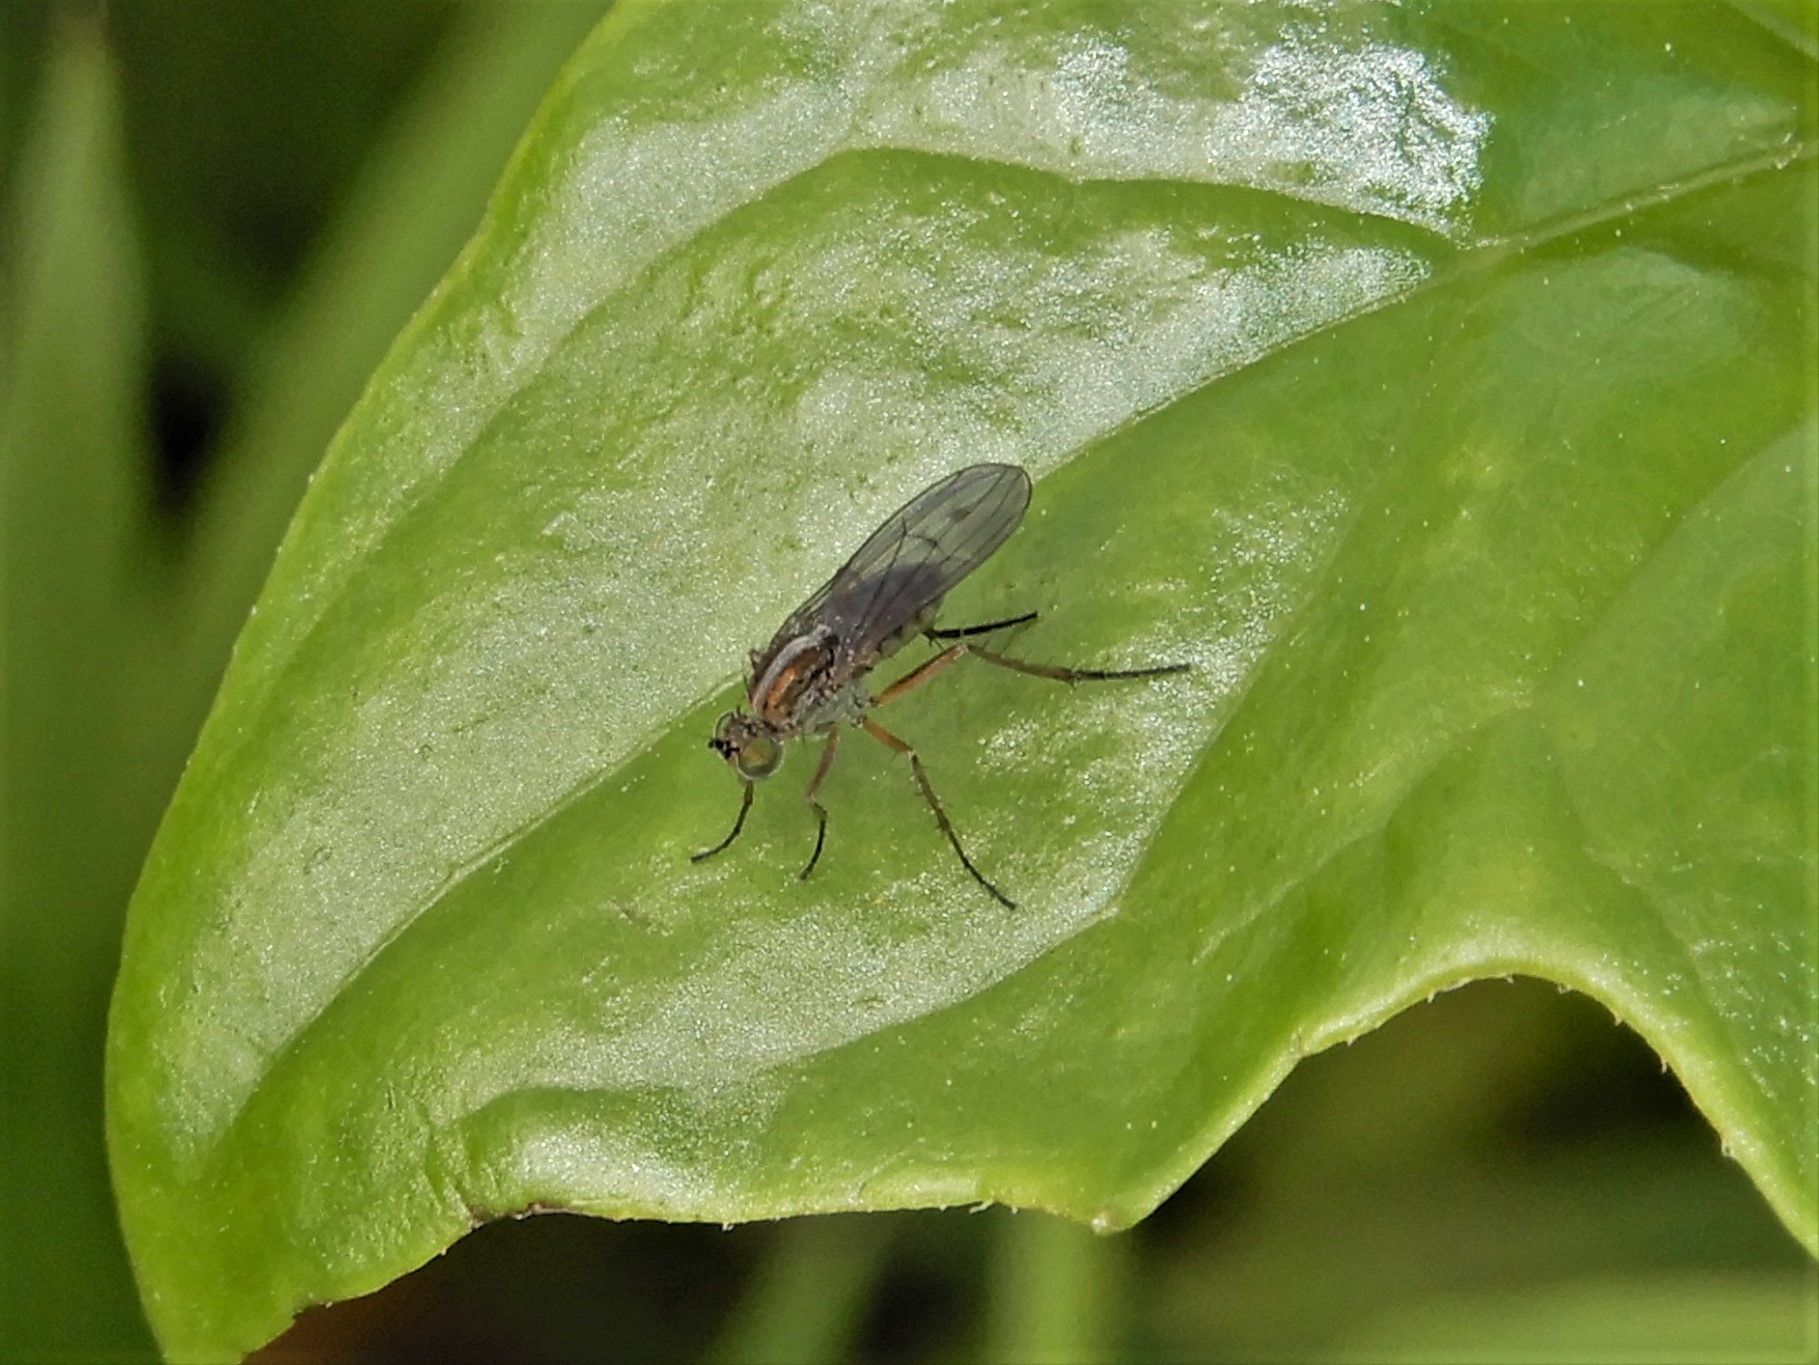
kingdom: Animalia
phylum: Arthropoda
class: Insecta
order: Diptera
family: Dolichopodidae
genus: Tetrachaetus
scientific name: Tetrachaetus bipunctatus
